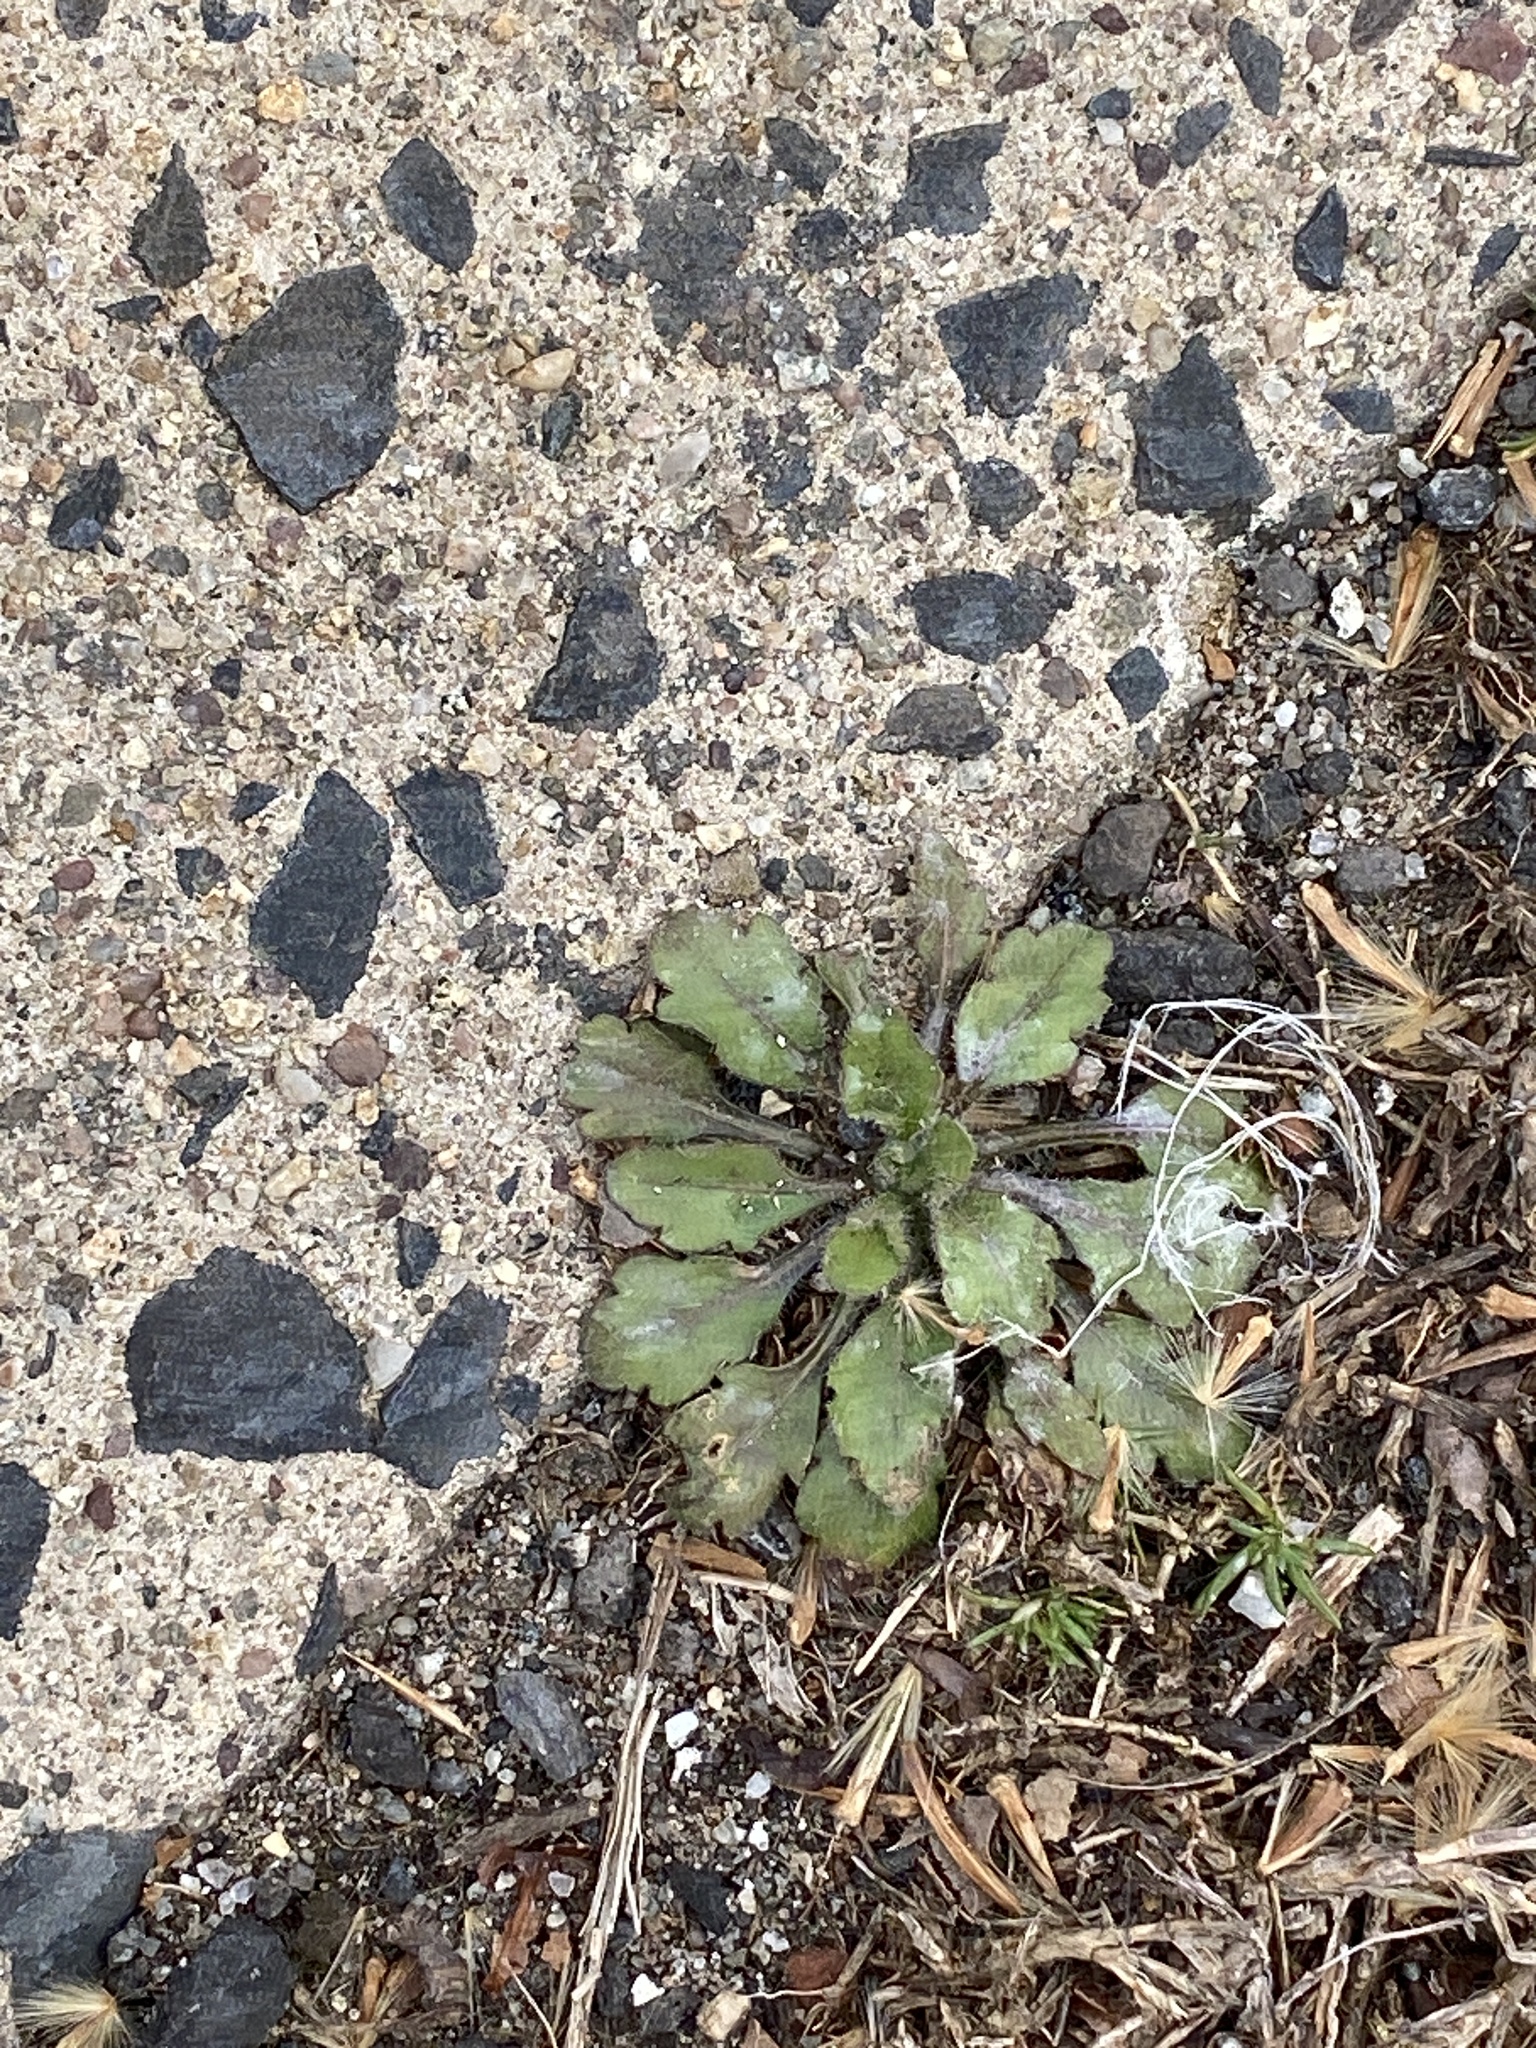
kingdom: Plantae
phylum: Tracheophyta
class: Magnoliopsida
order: Asterales
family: Asteraceae
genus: Erigeron
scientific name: Erigeron canadensis
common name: Canadian fleabane
